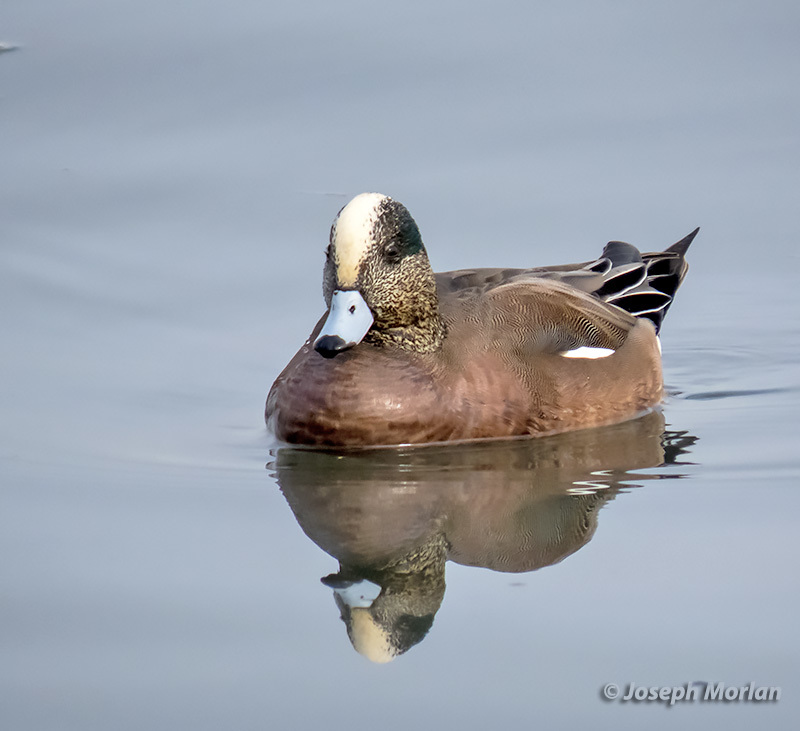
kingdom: Animalia
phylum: Chordata
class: Aves
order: Anseriformes
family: Anatidae
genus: Mareca
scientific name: Mareca americana
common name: American wigeon
